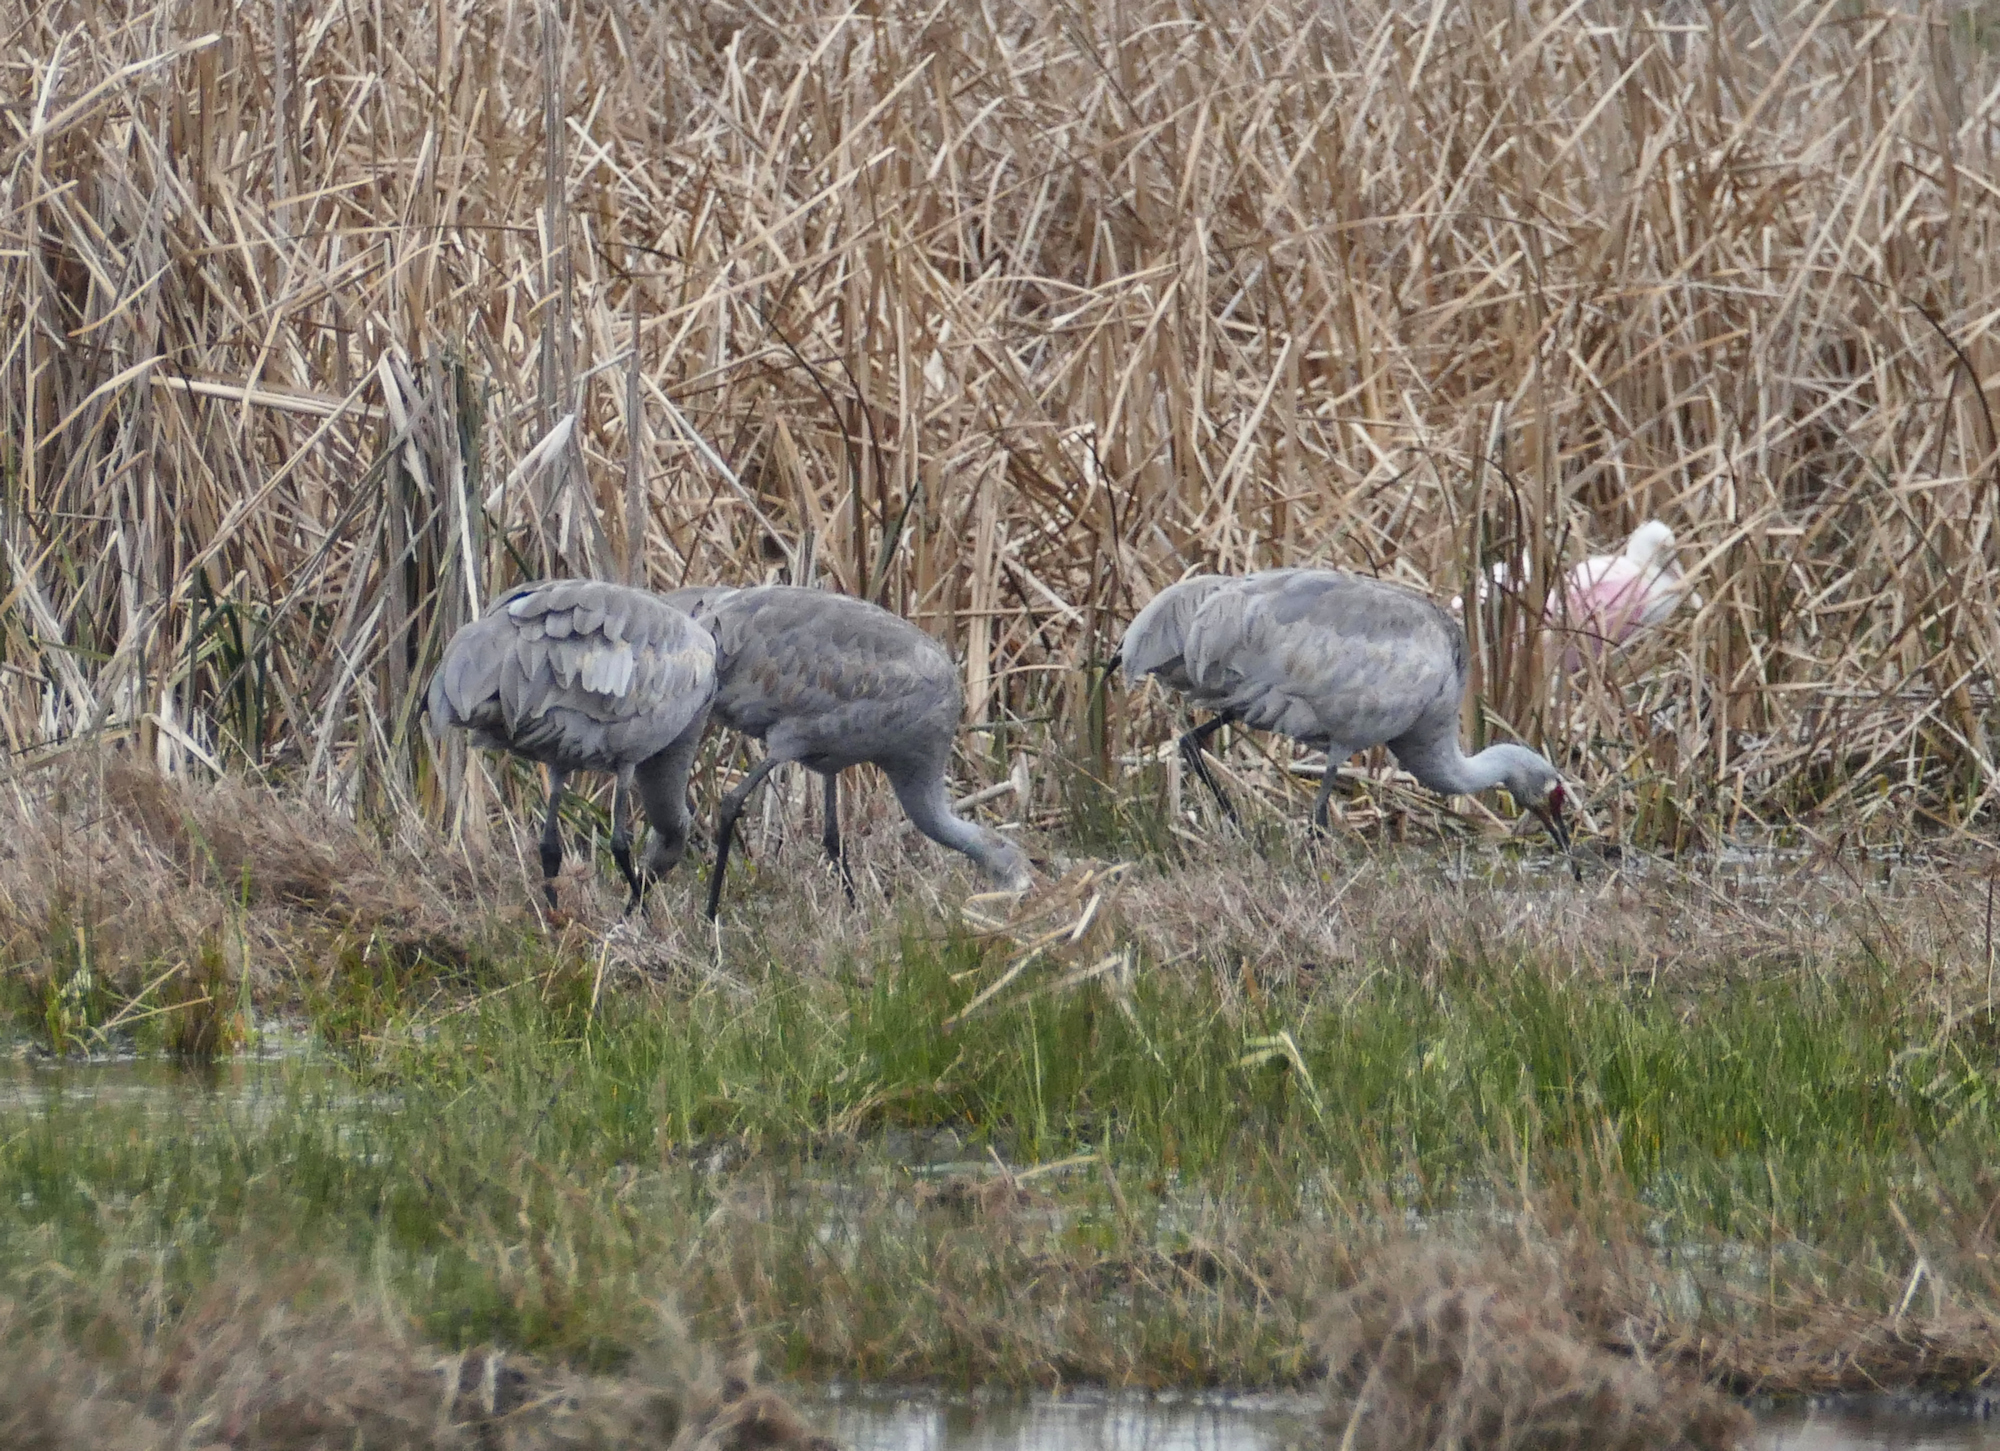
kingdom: Animalia
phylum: Chordata
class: Aves
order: Gruiformes
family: Gruidae
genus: Grus
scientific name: Grus canadensis
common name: Sandhill crane
